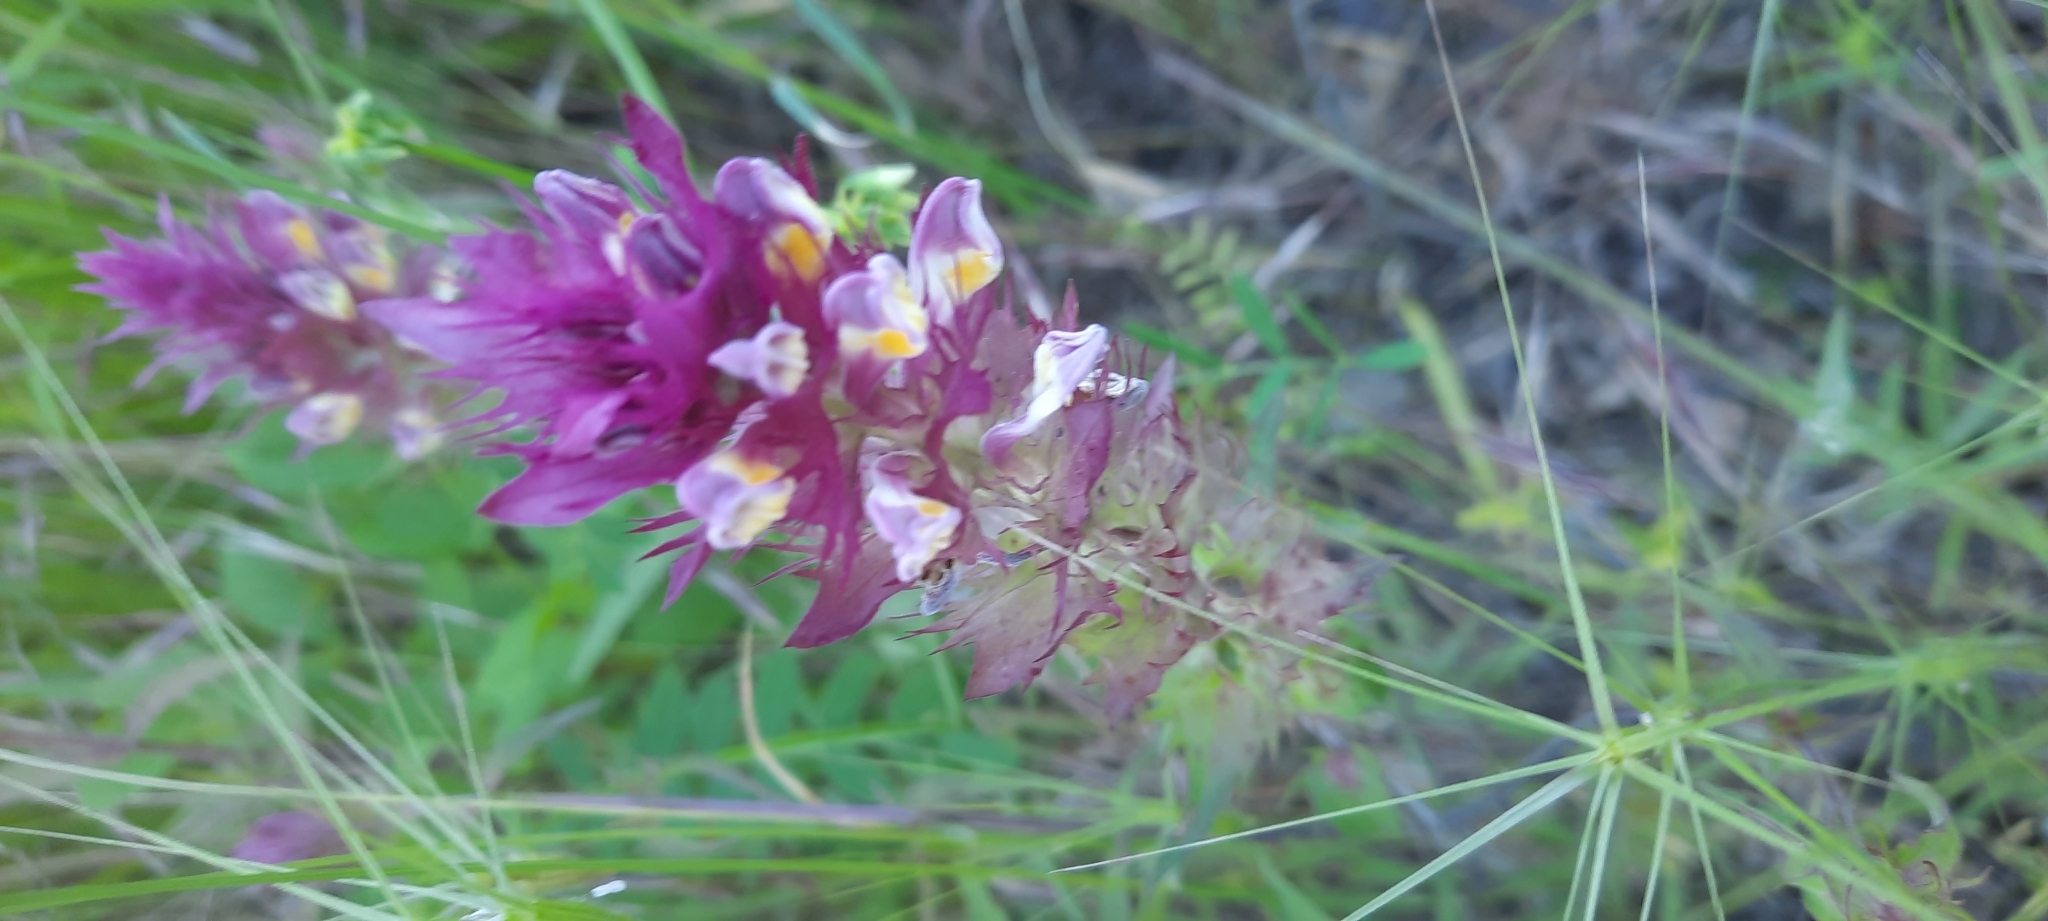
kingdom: Plantae
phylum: Tracheophyta
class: Magnoliopsida
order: Lamiales
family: Orobanchaceae
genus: Melampyrum
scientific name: Melampyrum arvense
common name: Field cow-wheat
